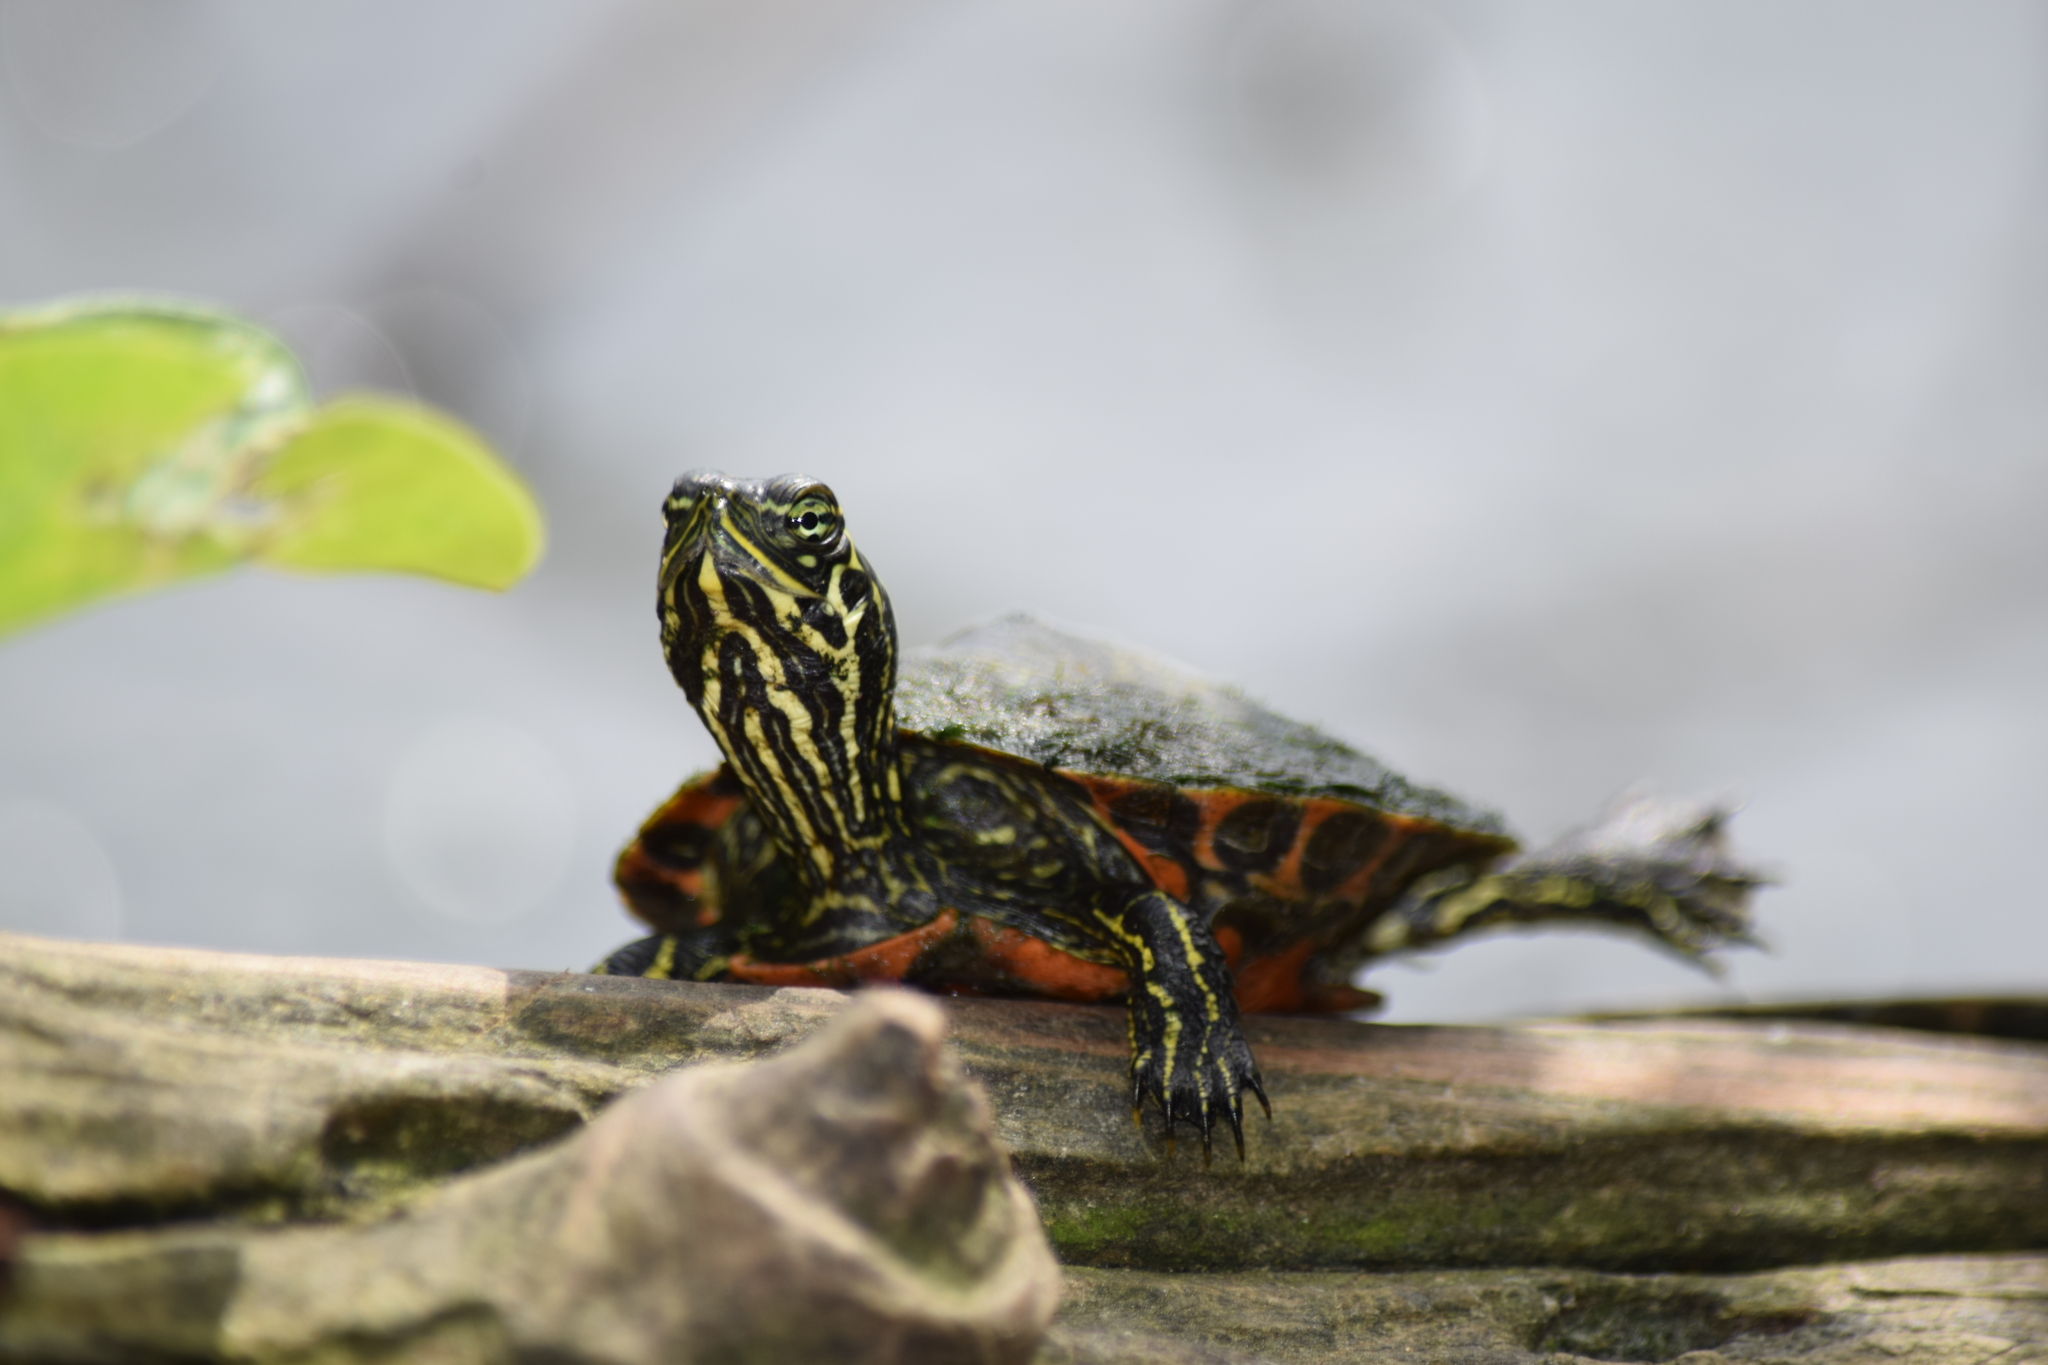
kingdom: Animalia
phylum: Chordata
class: Testudines
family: Emydidae
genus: Pseudemys
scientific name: Pseudemys rubriventris
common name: American red-bellied turtle
